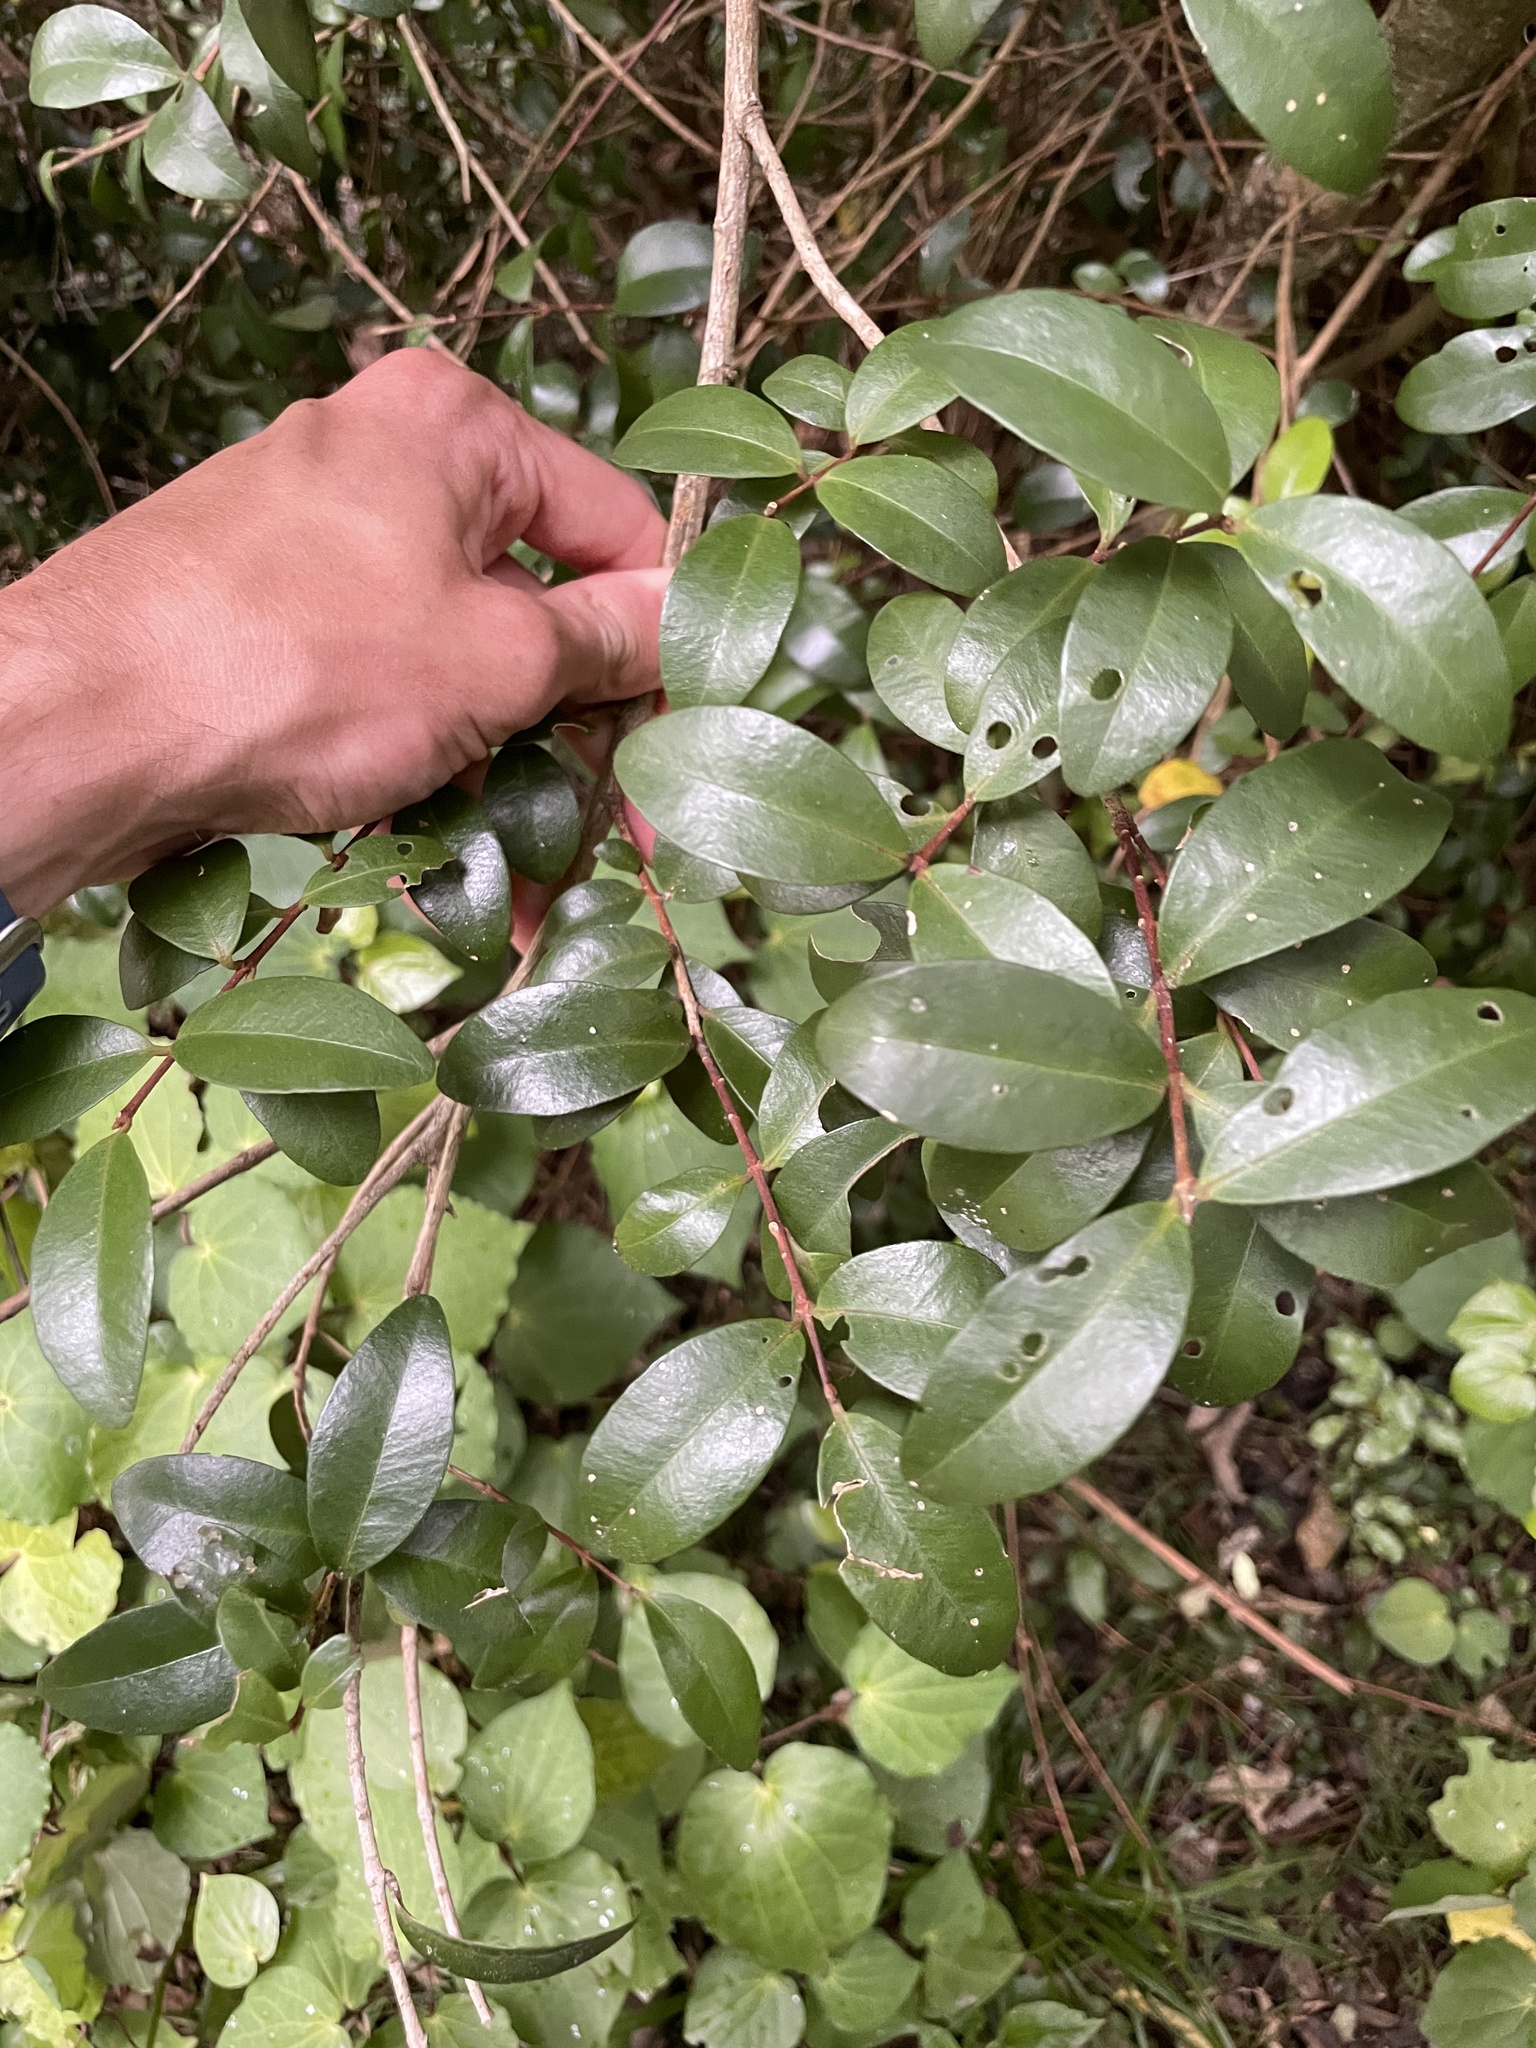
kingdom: Plantae
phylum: Tracheophyta
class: Magnoliopsida
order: Myrtales
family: Myrtaceae
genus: Metrosideros
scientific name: Metrosideros fulgens
